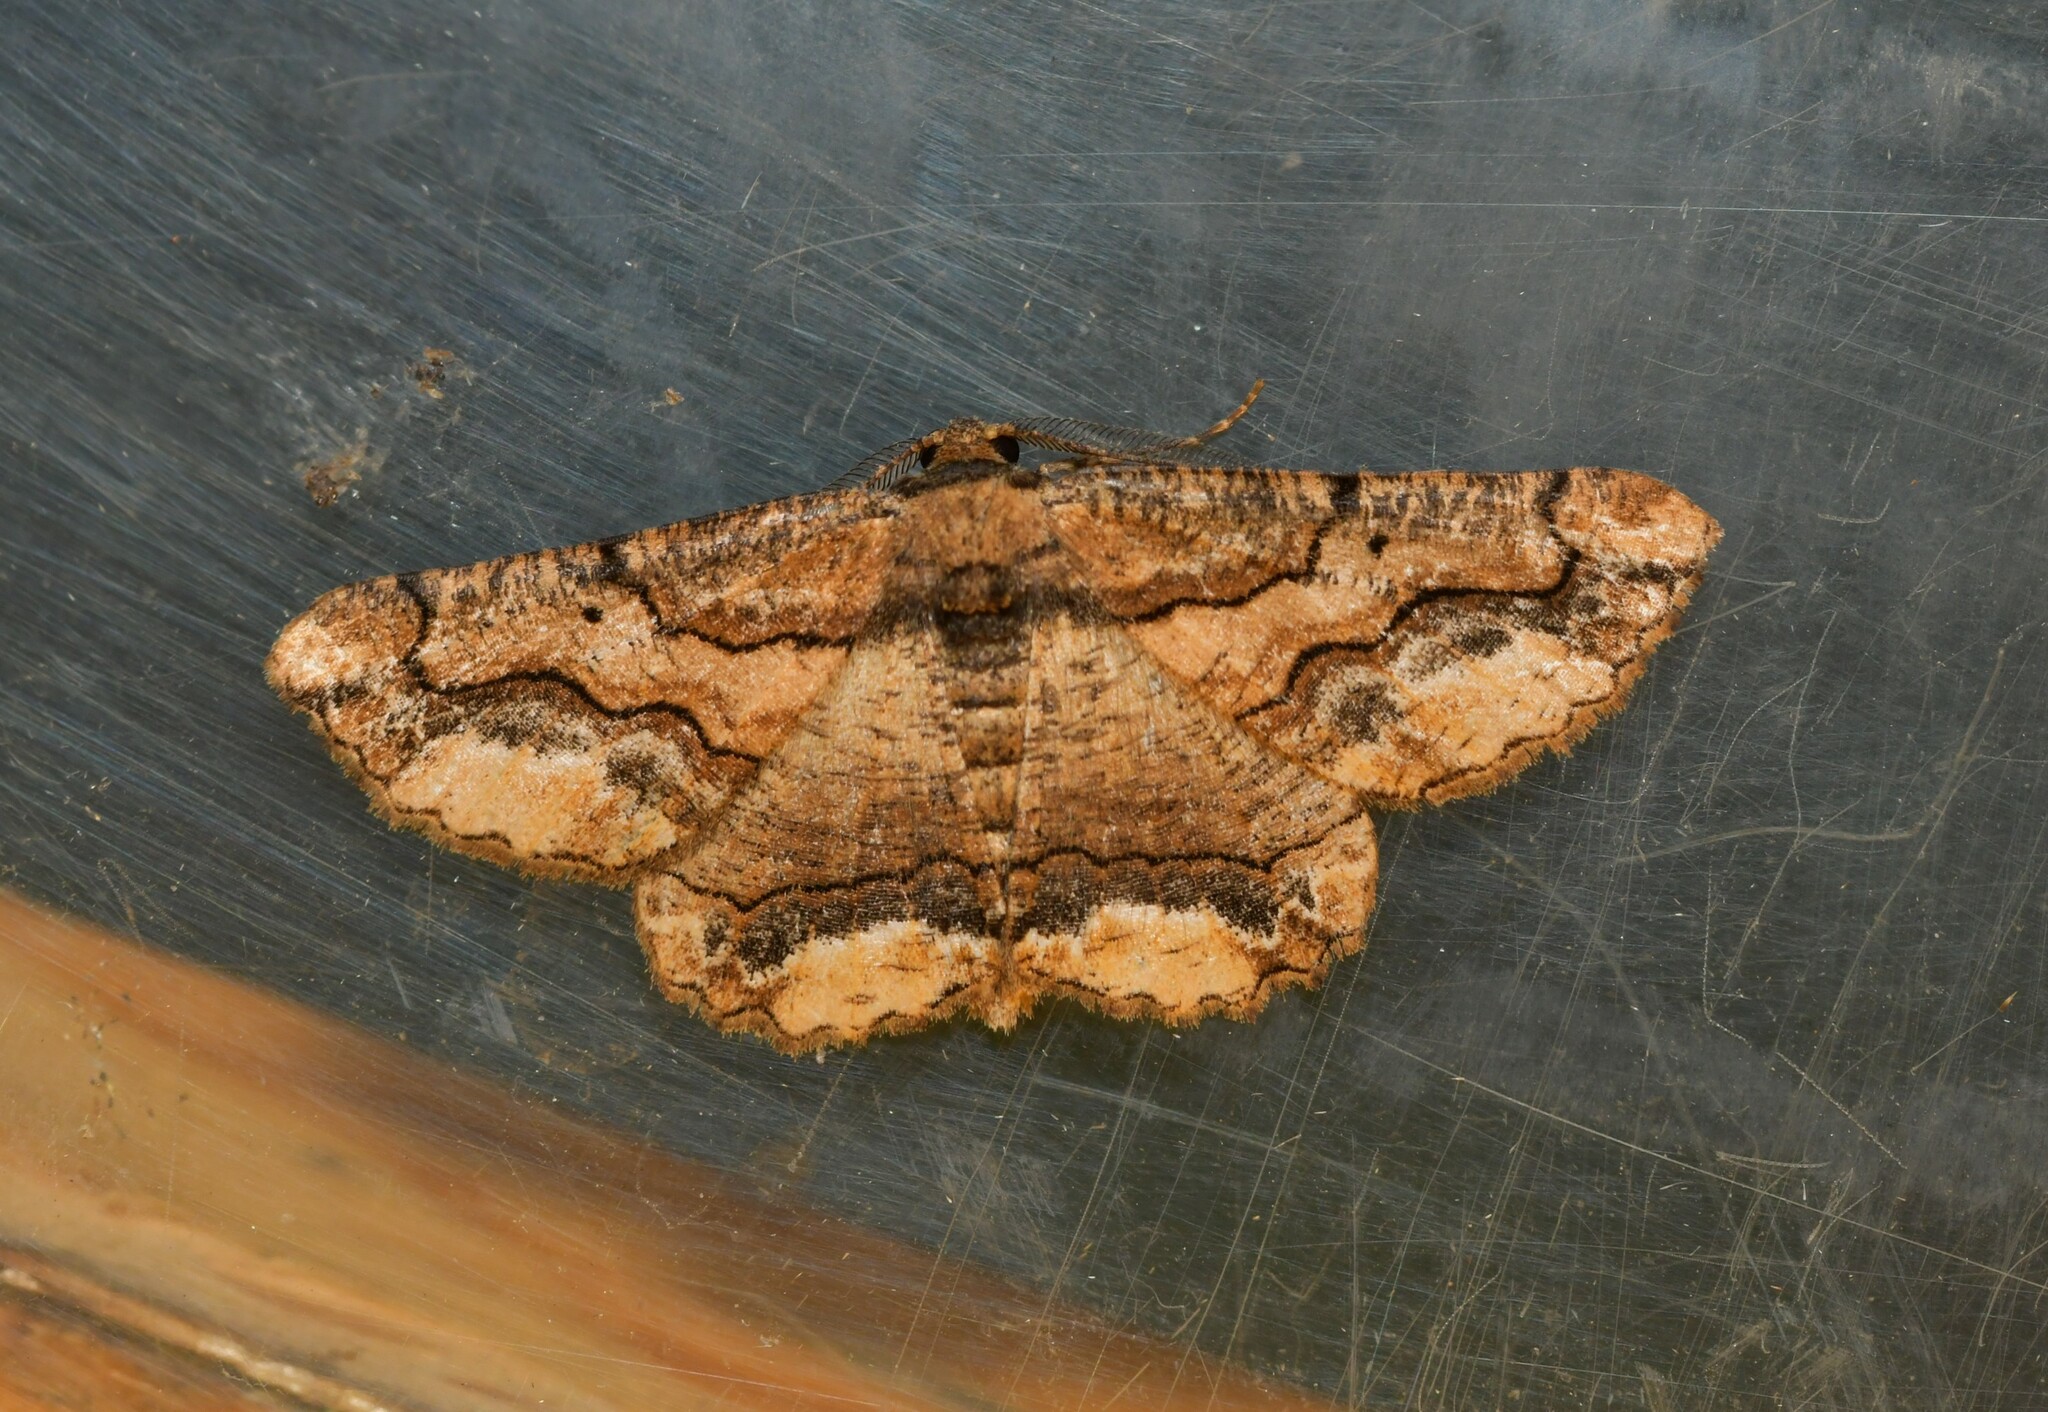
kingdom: Animalia
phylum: Arthropoda
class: Insecta
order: Lepidoptera
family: Geometridae
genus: Menophra
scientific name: Menophra japygiaria
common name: Brassy waved umber
